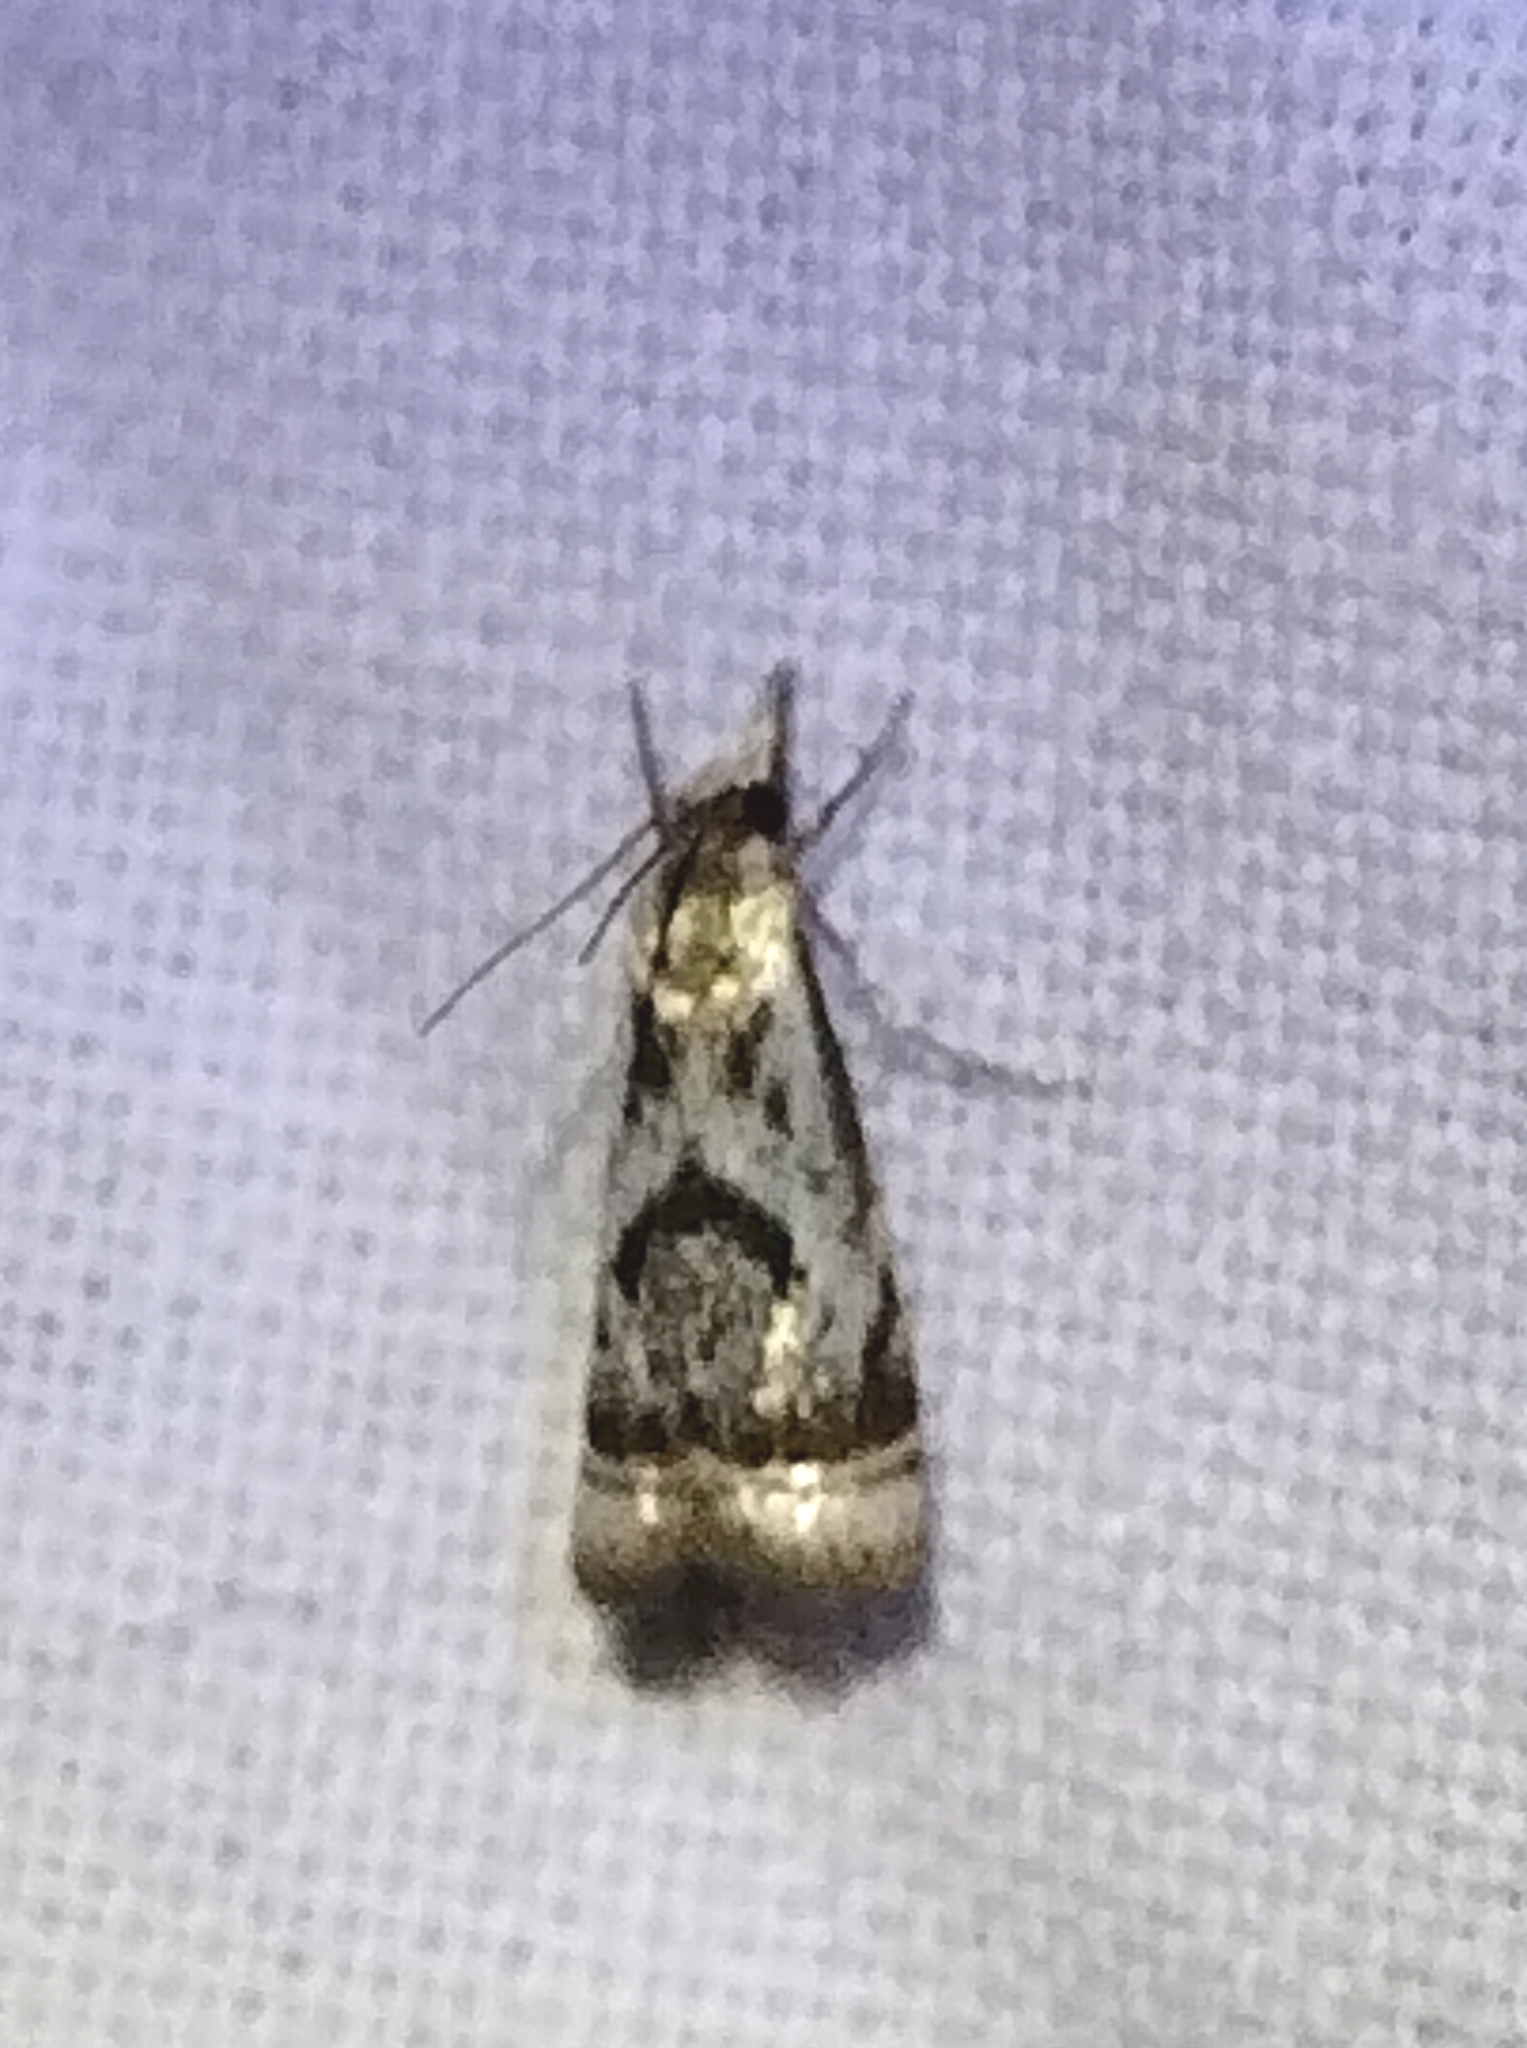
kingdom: Animalia
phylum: Arthropoda
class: Insecta
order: Lepidoptera
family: Crambidae
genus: Microcrambus
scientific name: Microcrambus elegans
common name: Elegant grass-veneer
